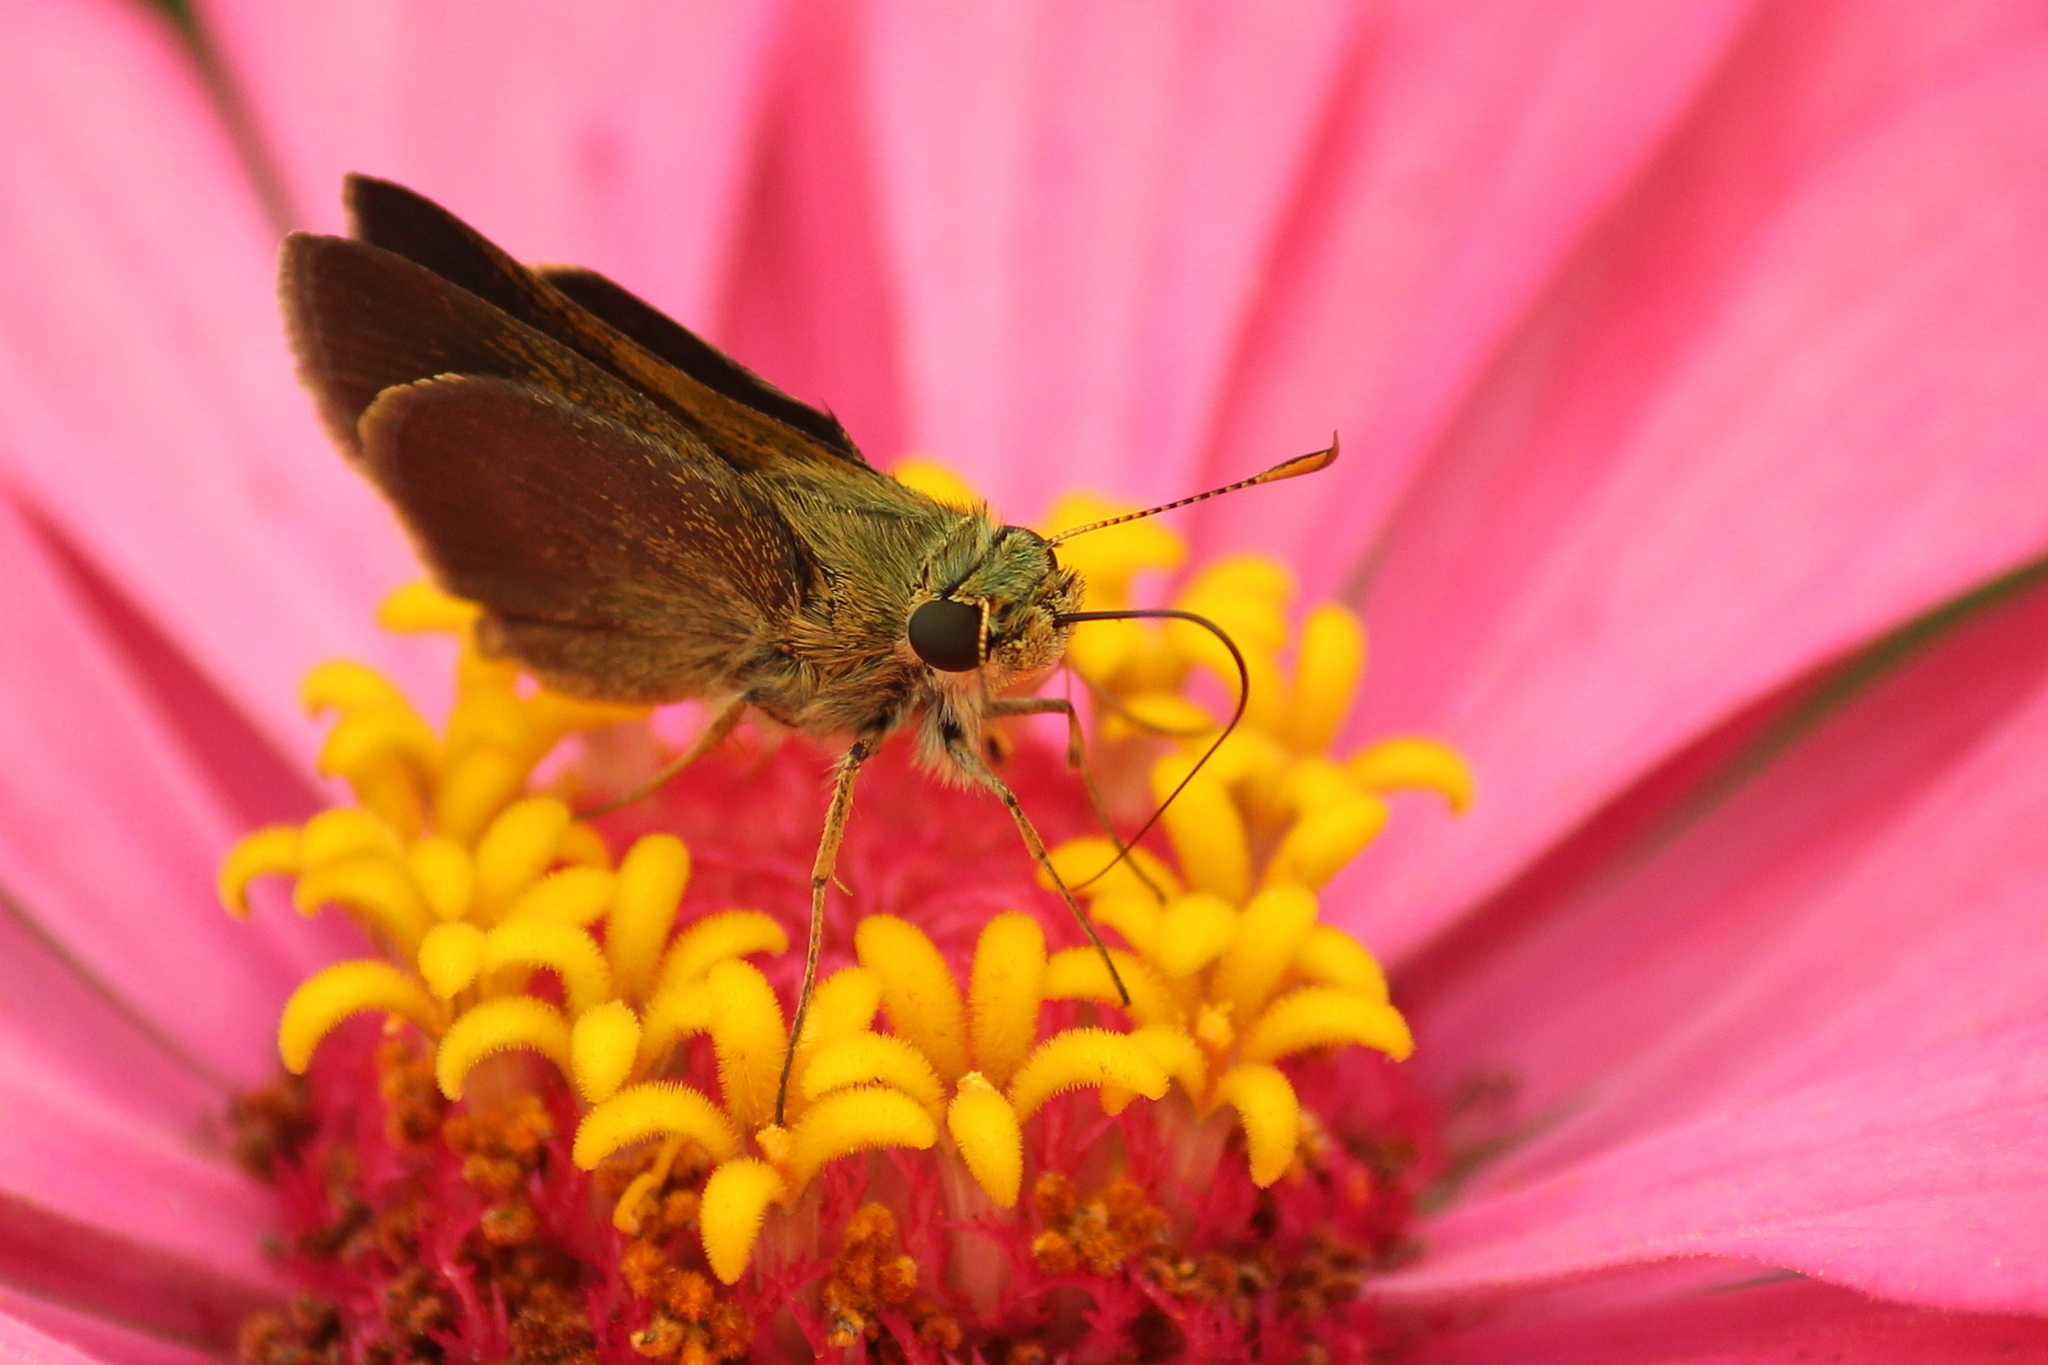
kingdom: Animalia
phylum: Arthropoda
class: Insecta
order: Lepidoptera
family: Hesperiidae
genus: Euphyes
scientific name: Euphyes vestris
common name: Dun skipper
